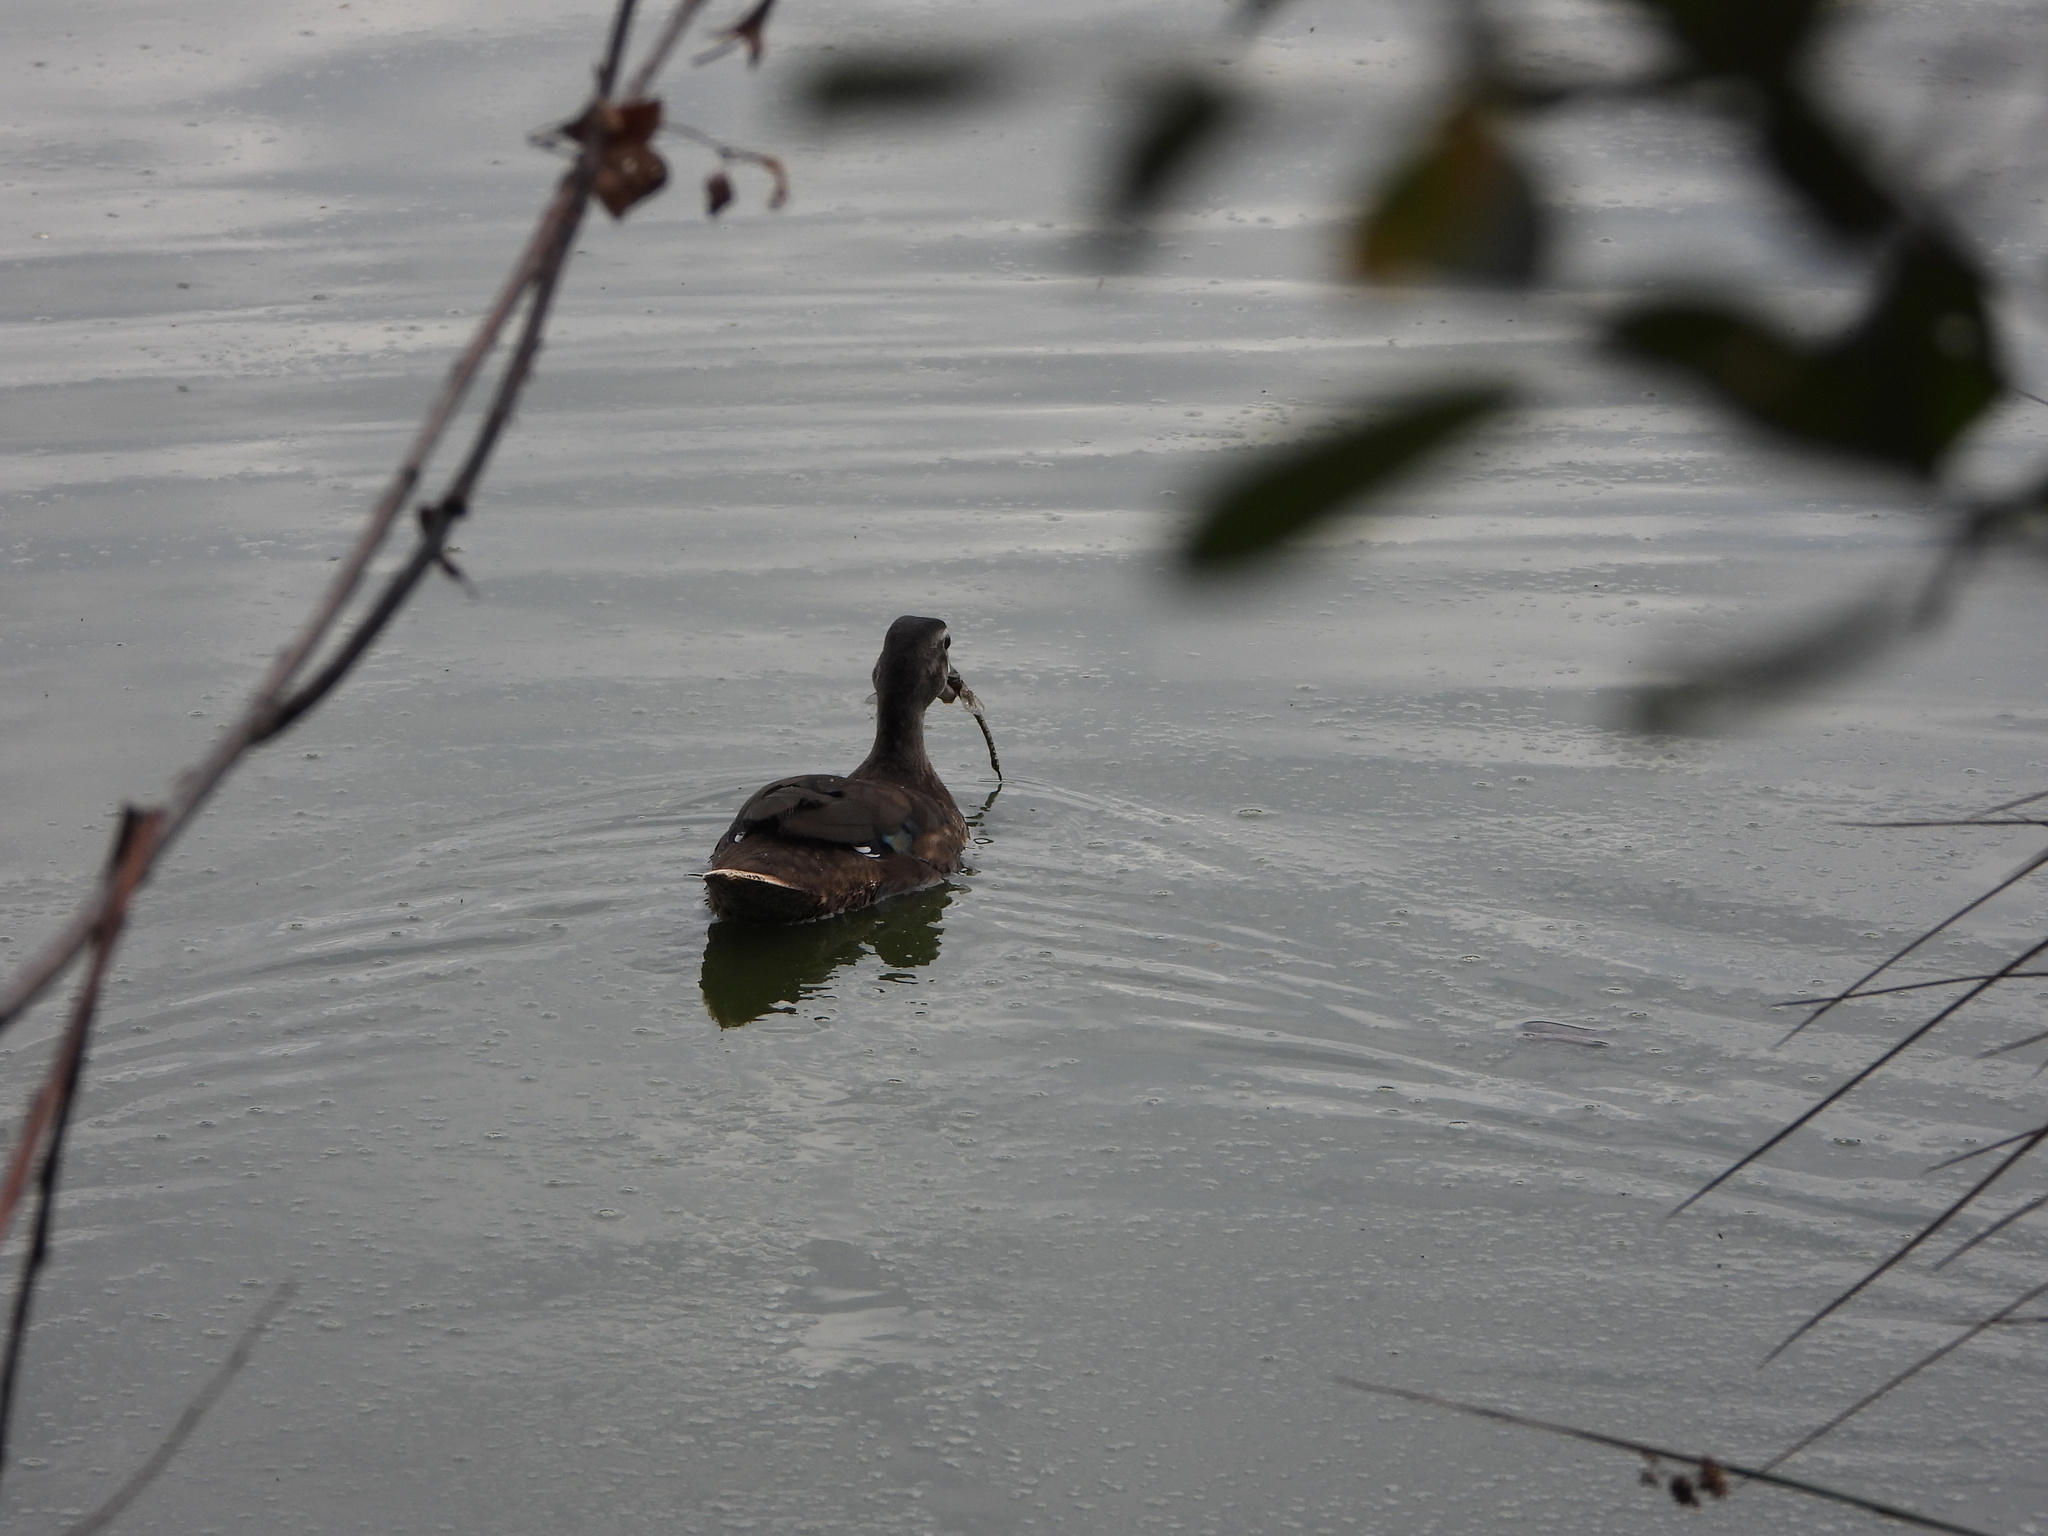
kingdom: Animalia
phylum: Chordata
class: Aves
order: Anseriformes
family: Anatidae
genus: Aix
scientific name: Aix sponsa
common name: Wood duck
